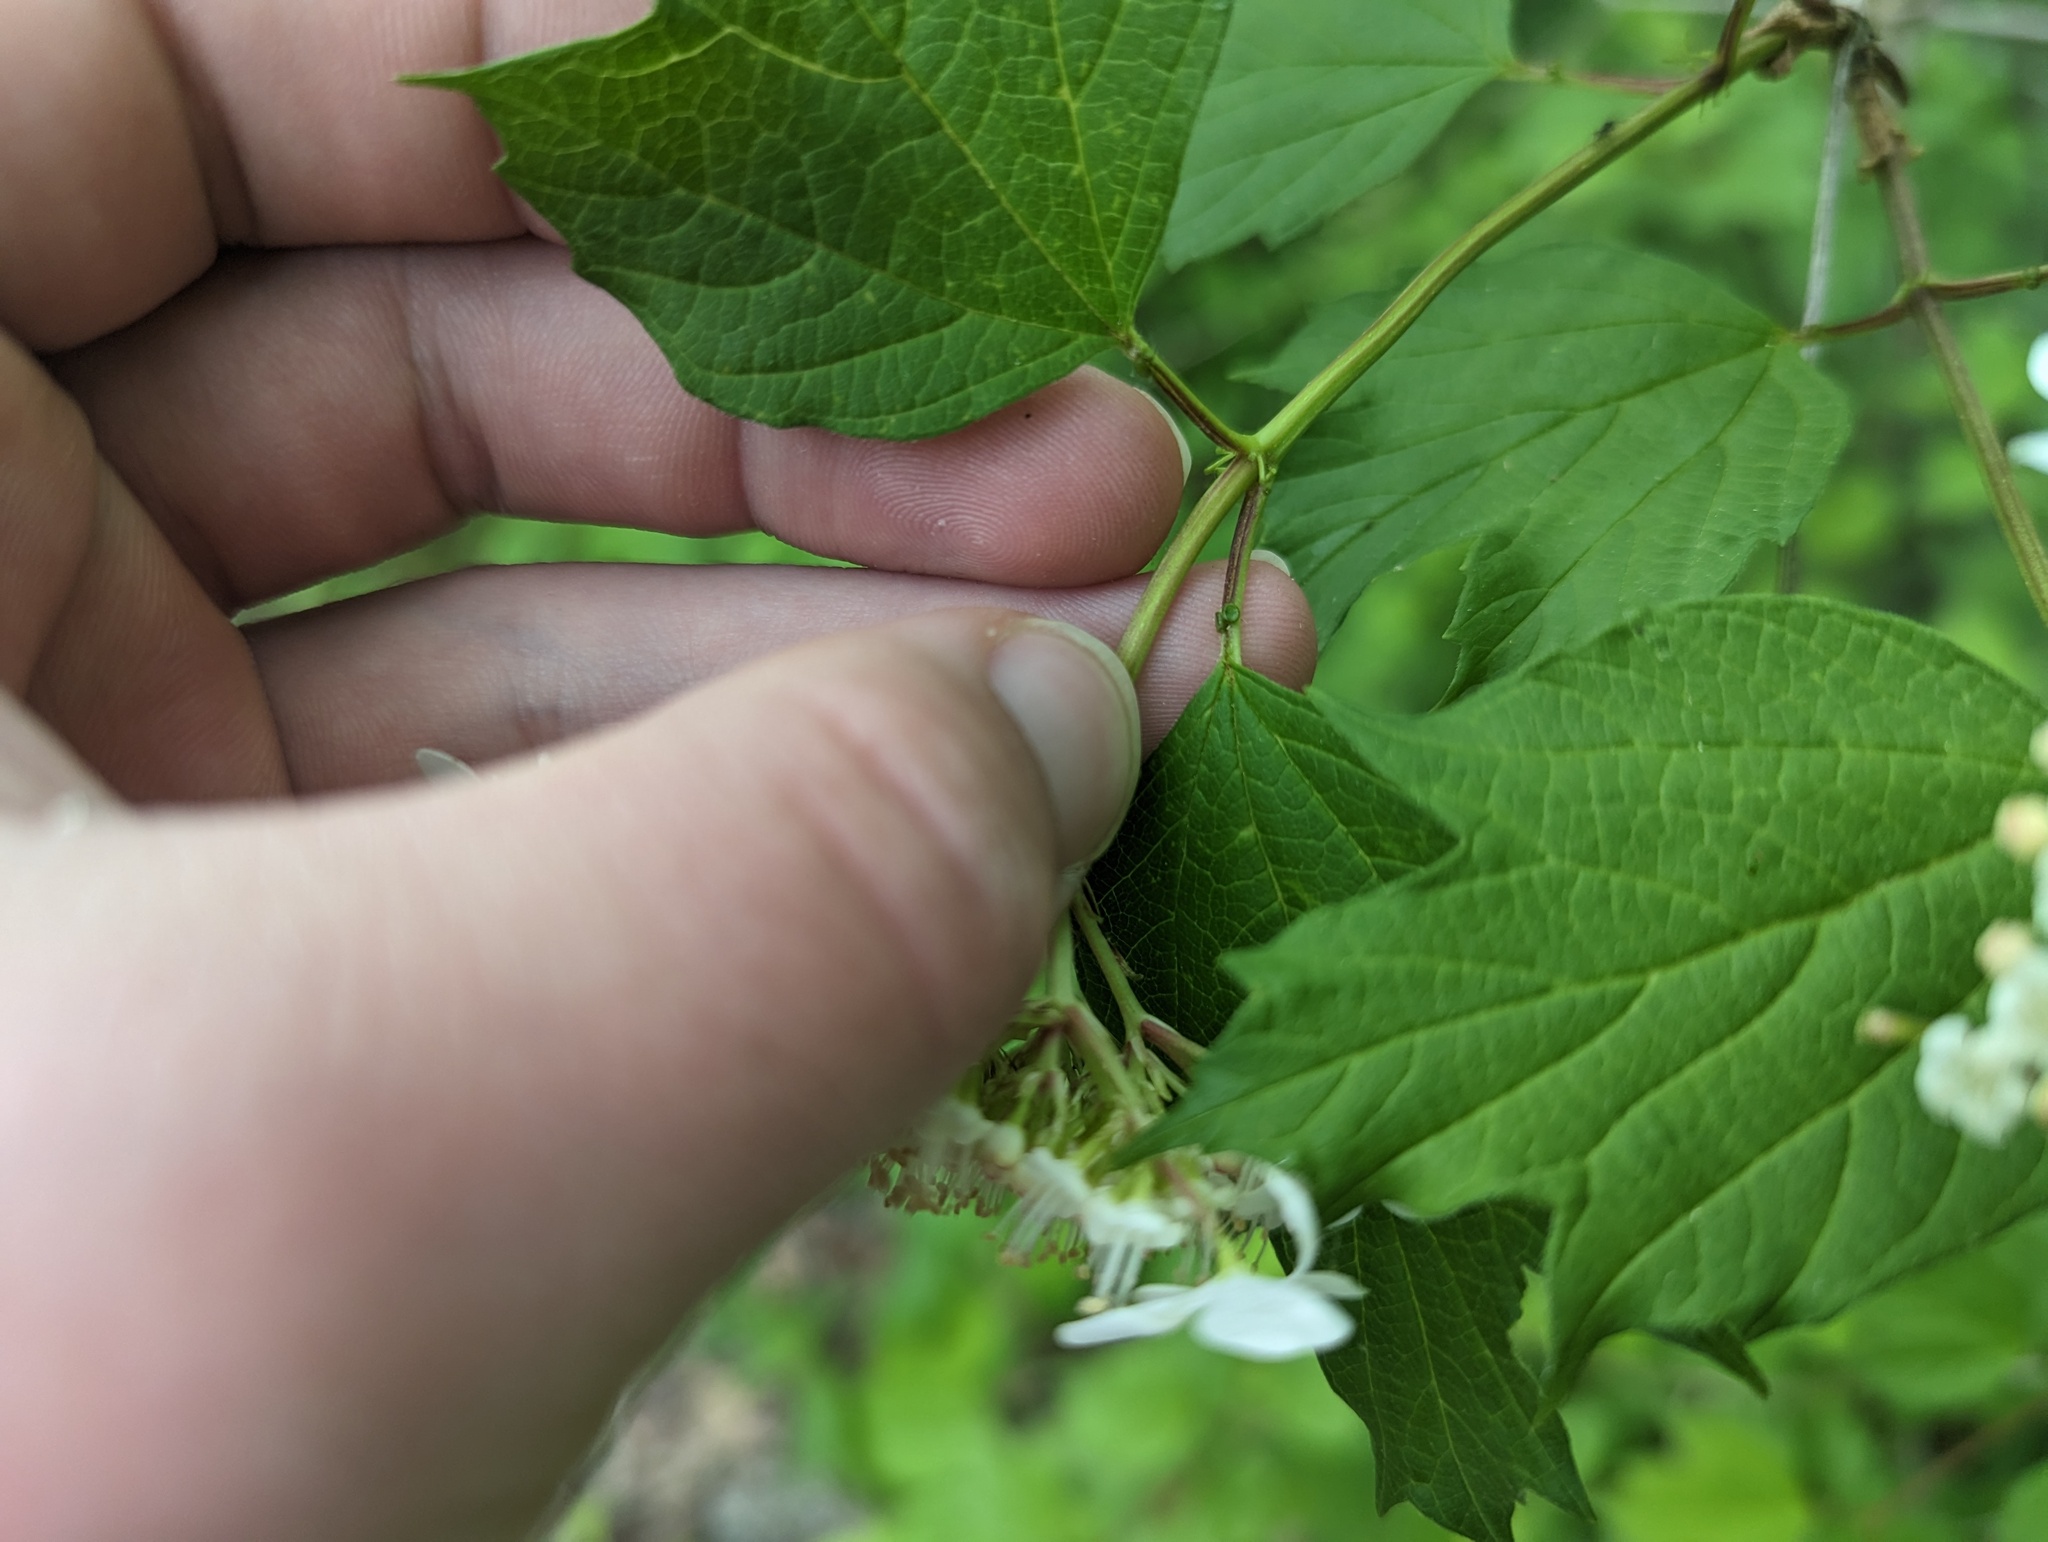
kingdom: Plantae
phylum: Tracheophyta
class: Magnoliopsida
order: Dipsacales
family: Viburnaceae
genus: Viburnum
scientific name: Viburnum opulus
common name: Guelder-rose
